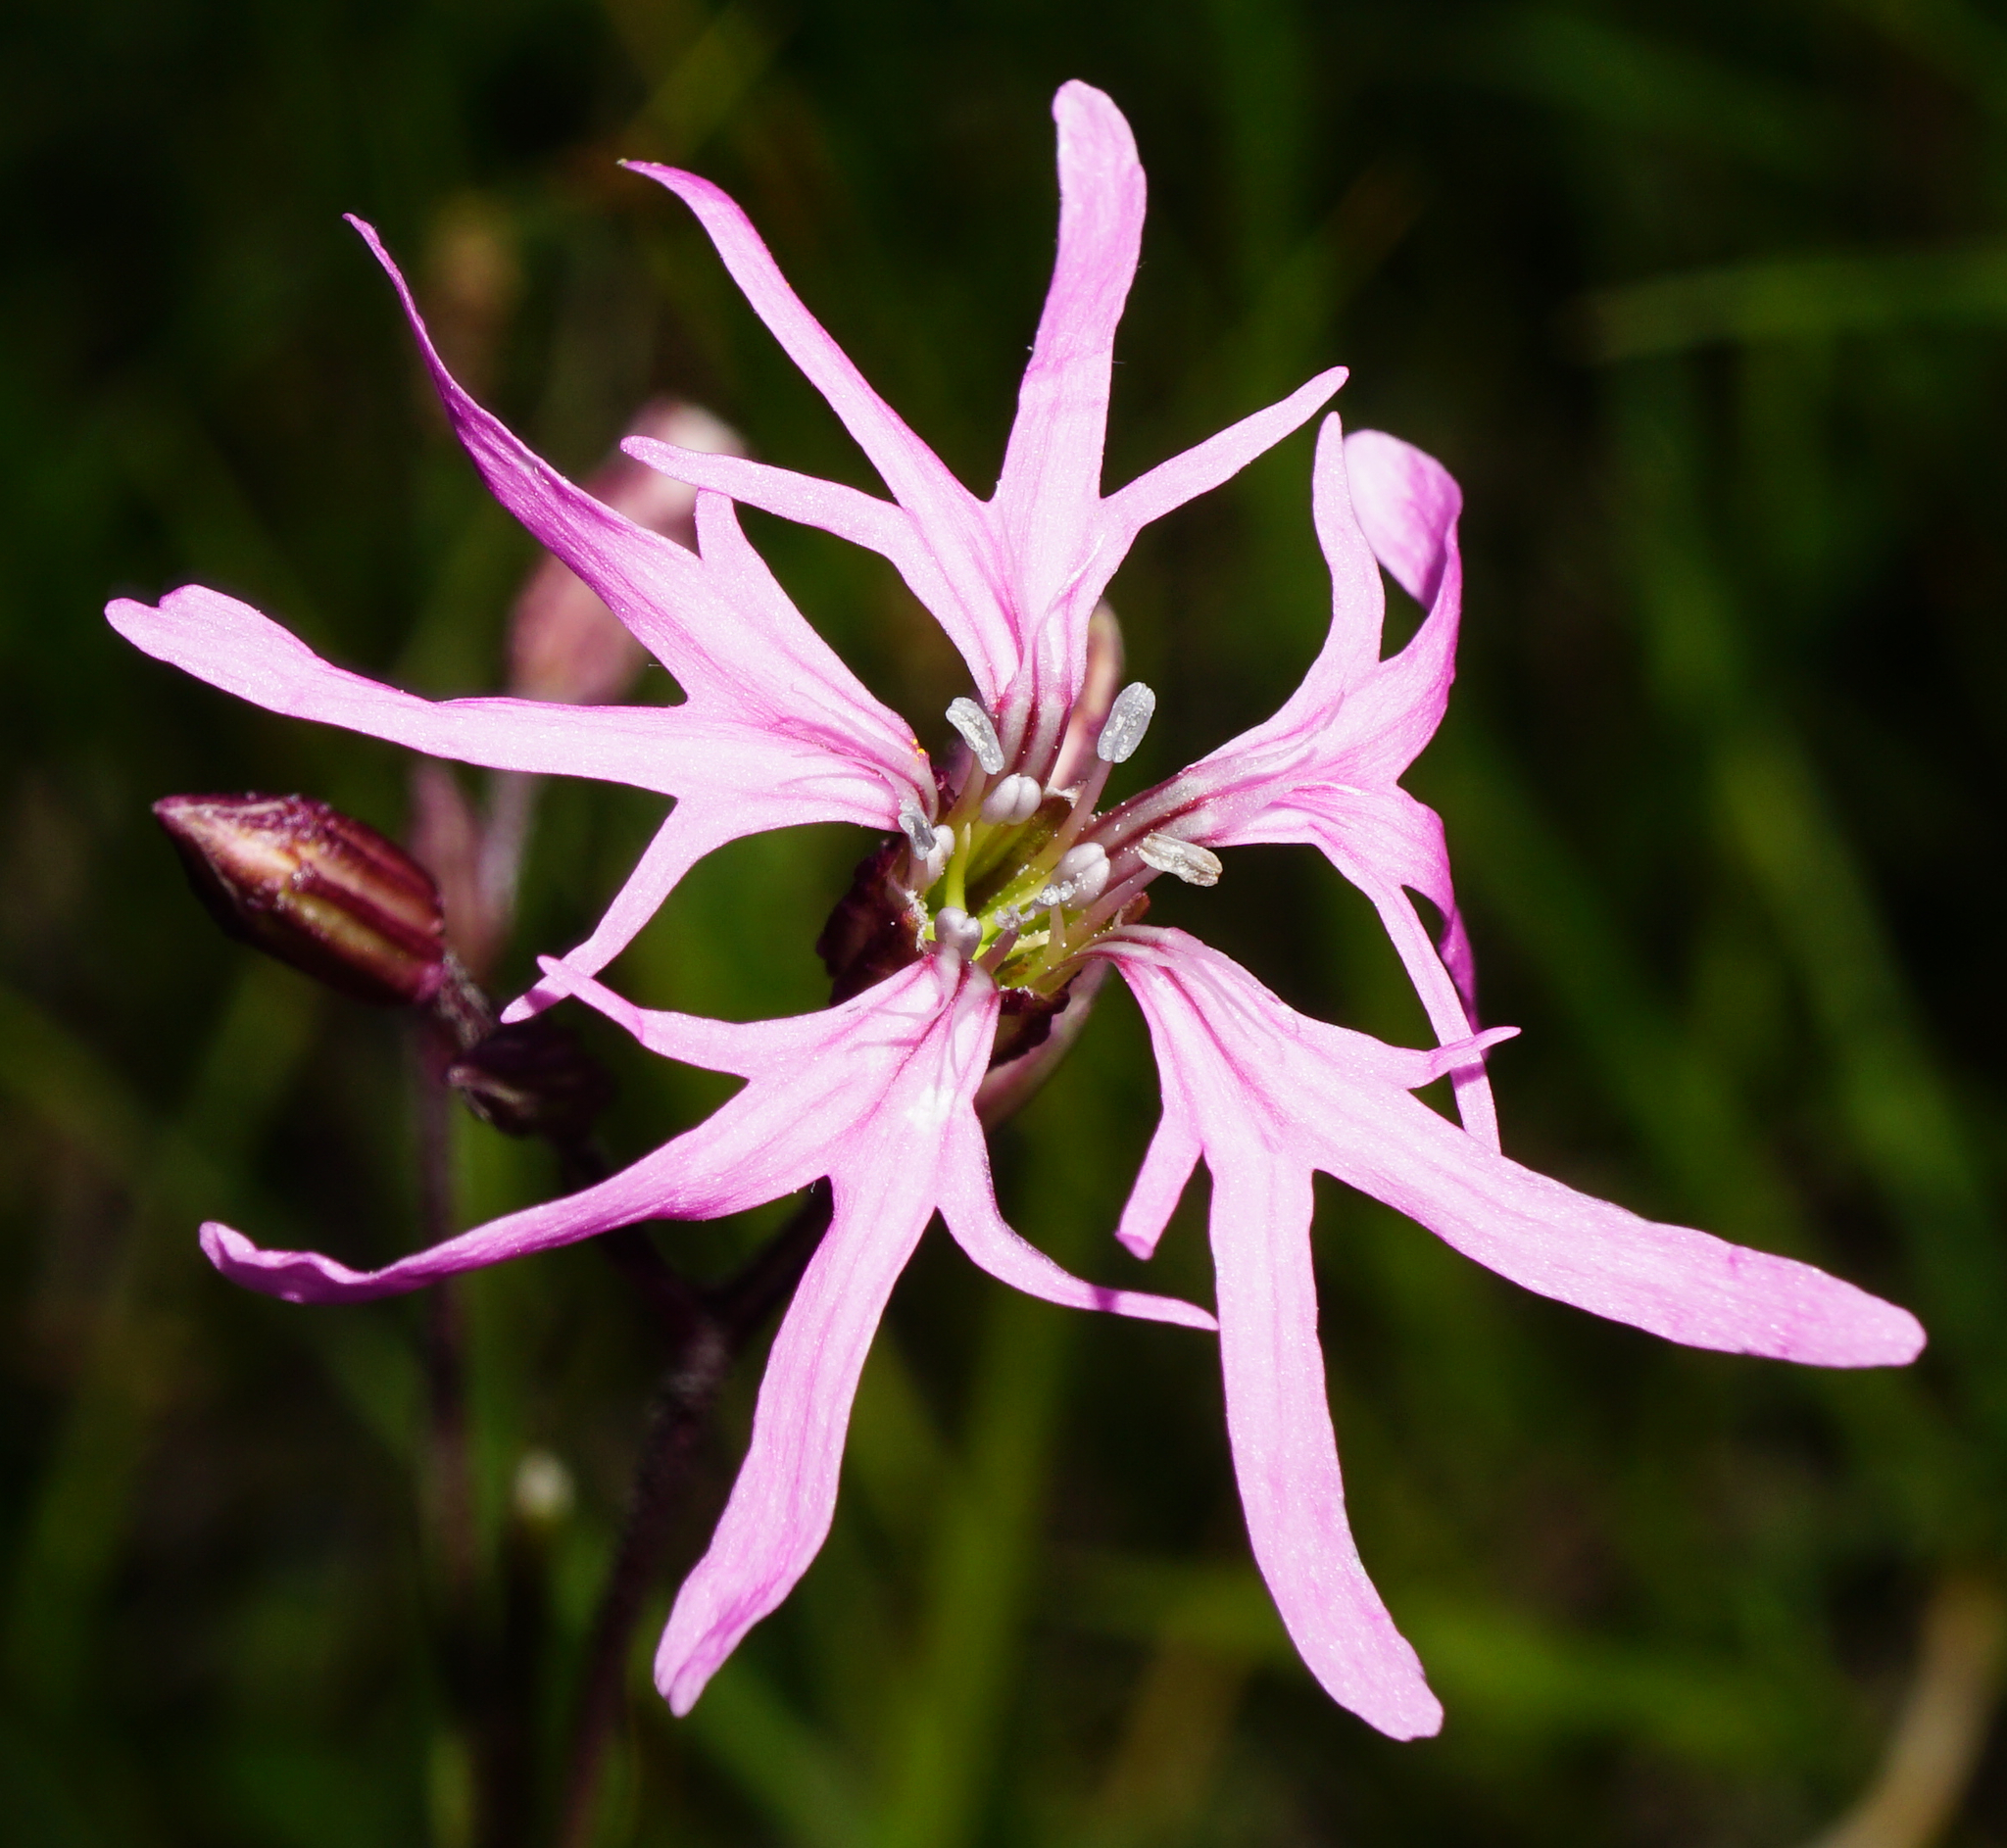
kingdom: Plantae
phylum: Tracheophyta
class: Magnoliopsida
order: Caryophyllales
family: Caryophyllaceae
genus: Silene
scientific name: Silene flos-cuculi
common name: Ragged-robin
